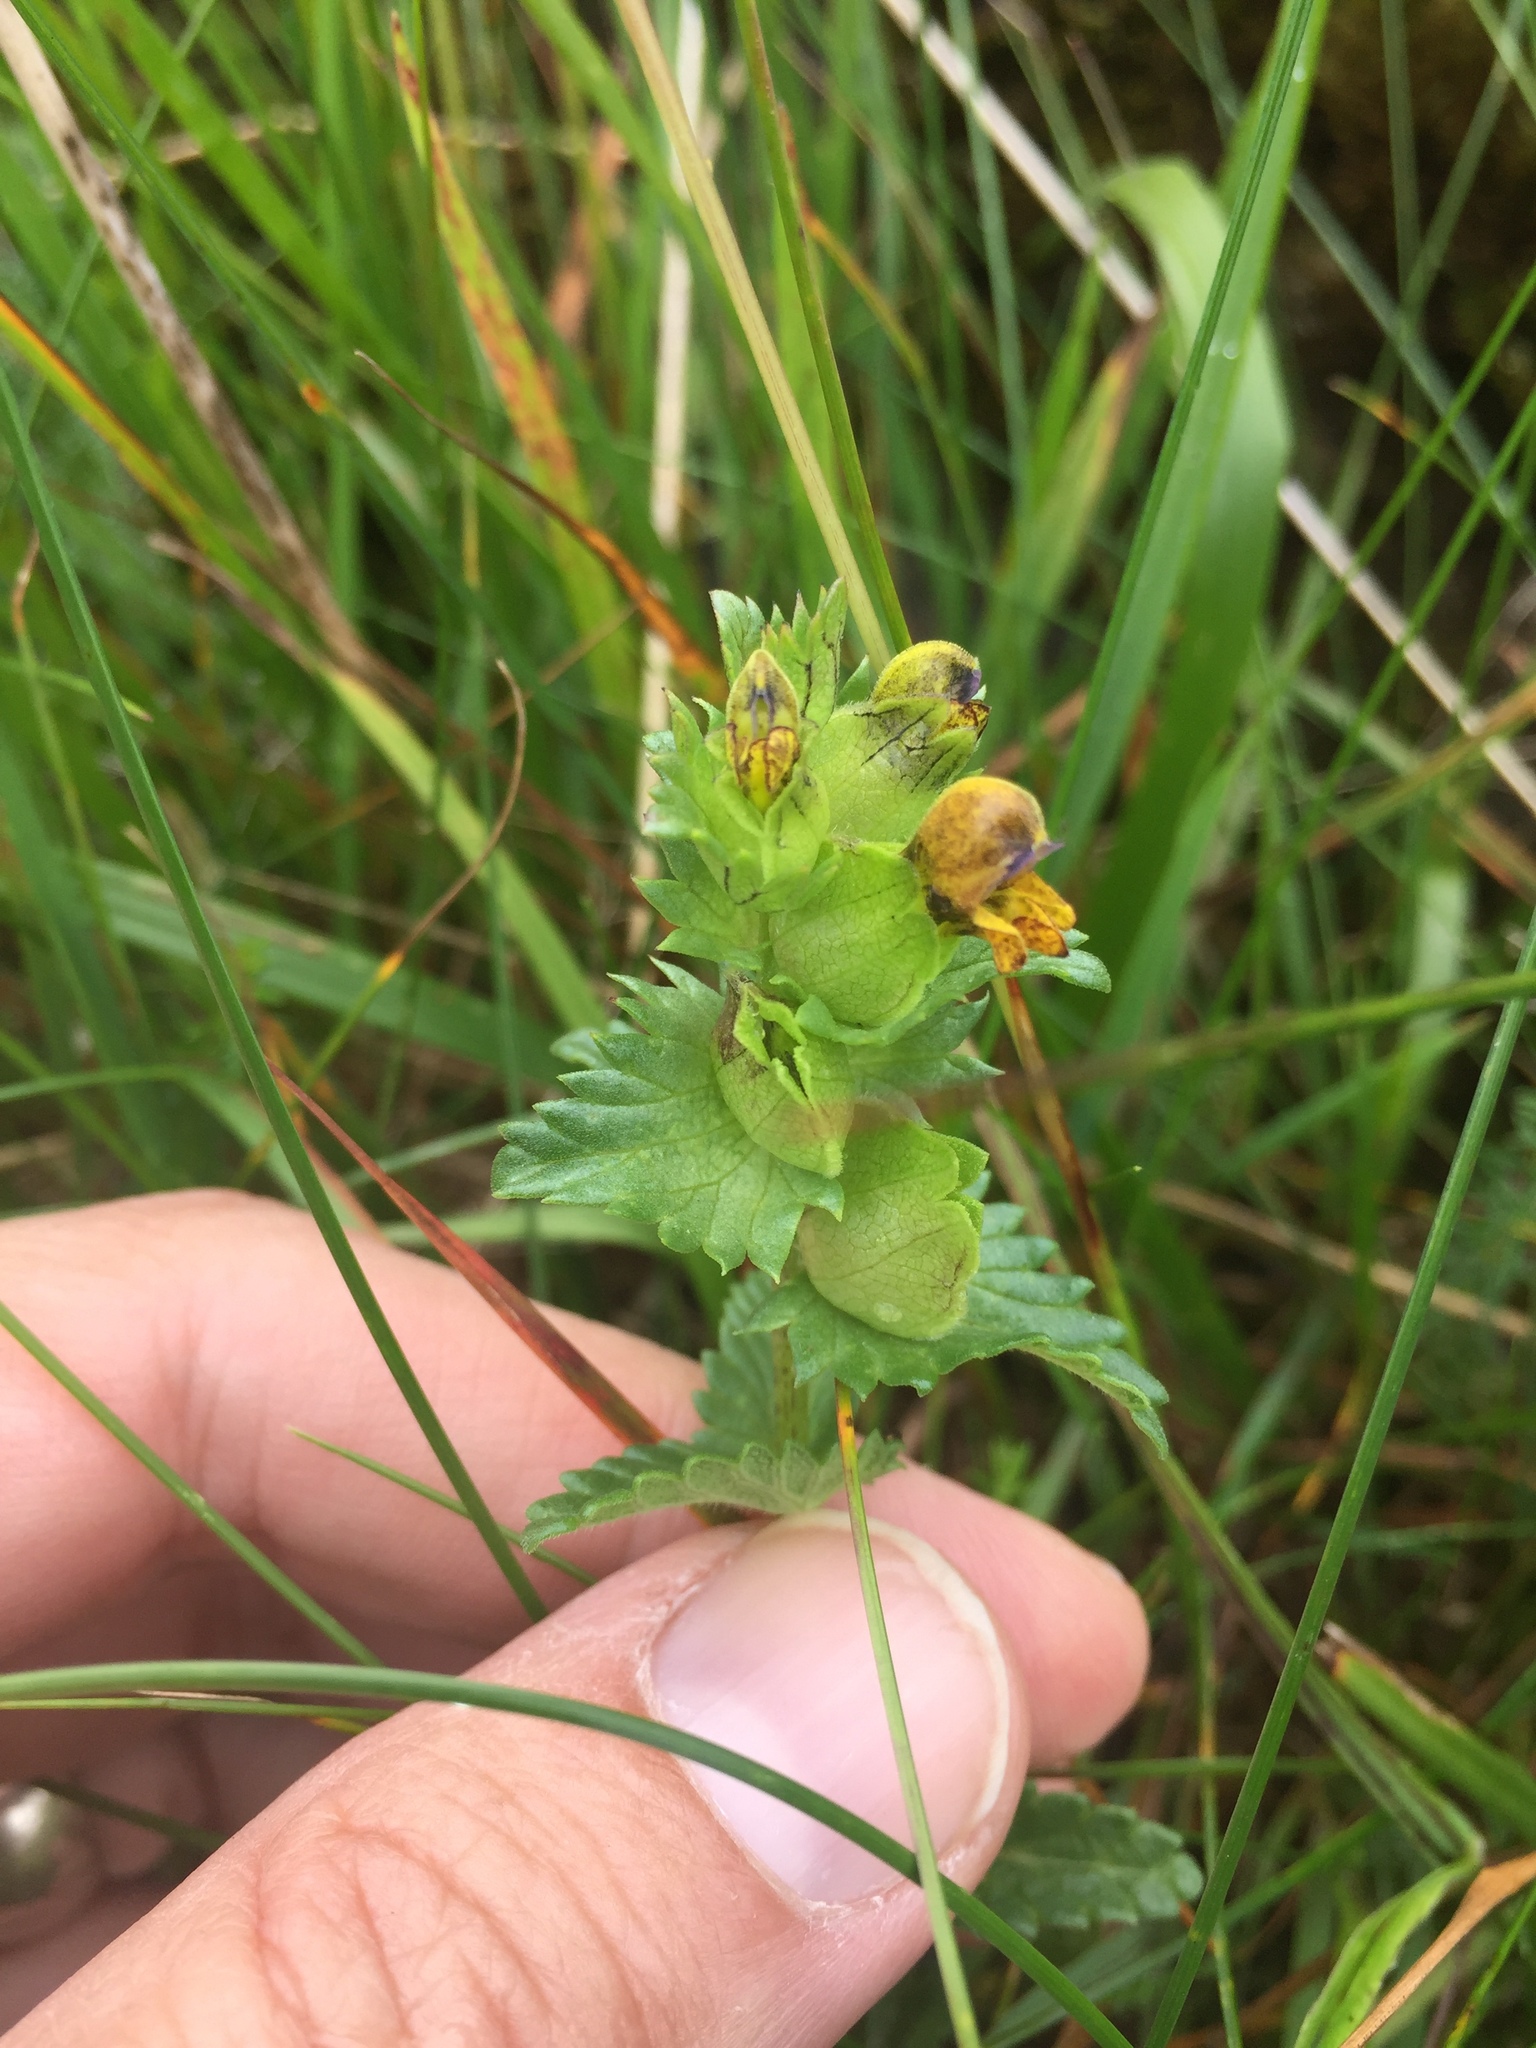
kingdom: Plantae
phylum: Tracheophyta
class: Magnoliopsida
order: Lamiales
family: Orobanchaceae
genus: Rhinanthus
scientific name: Rhinanthus minor
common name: Yellow-rattle
